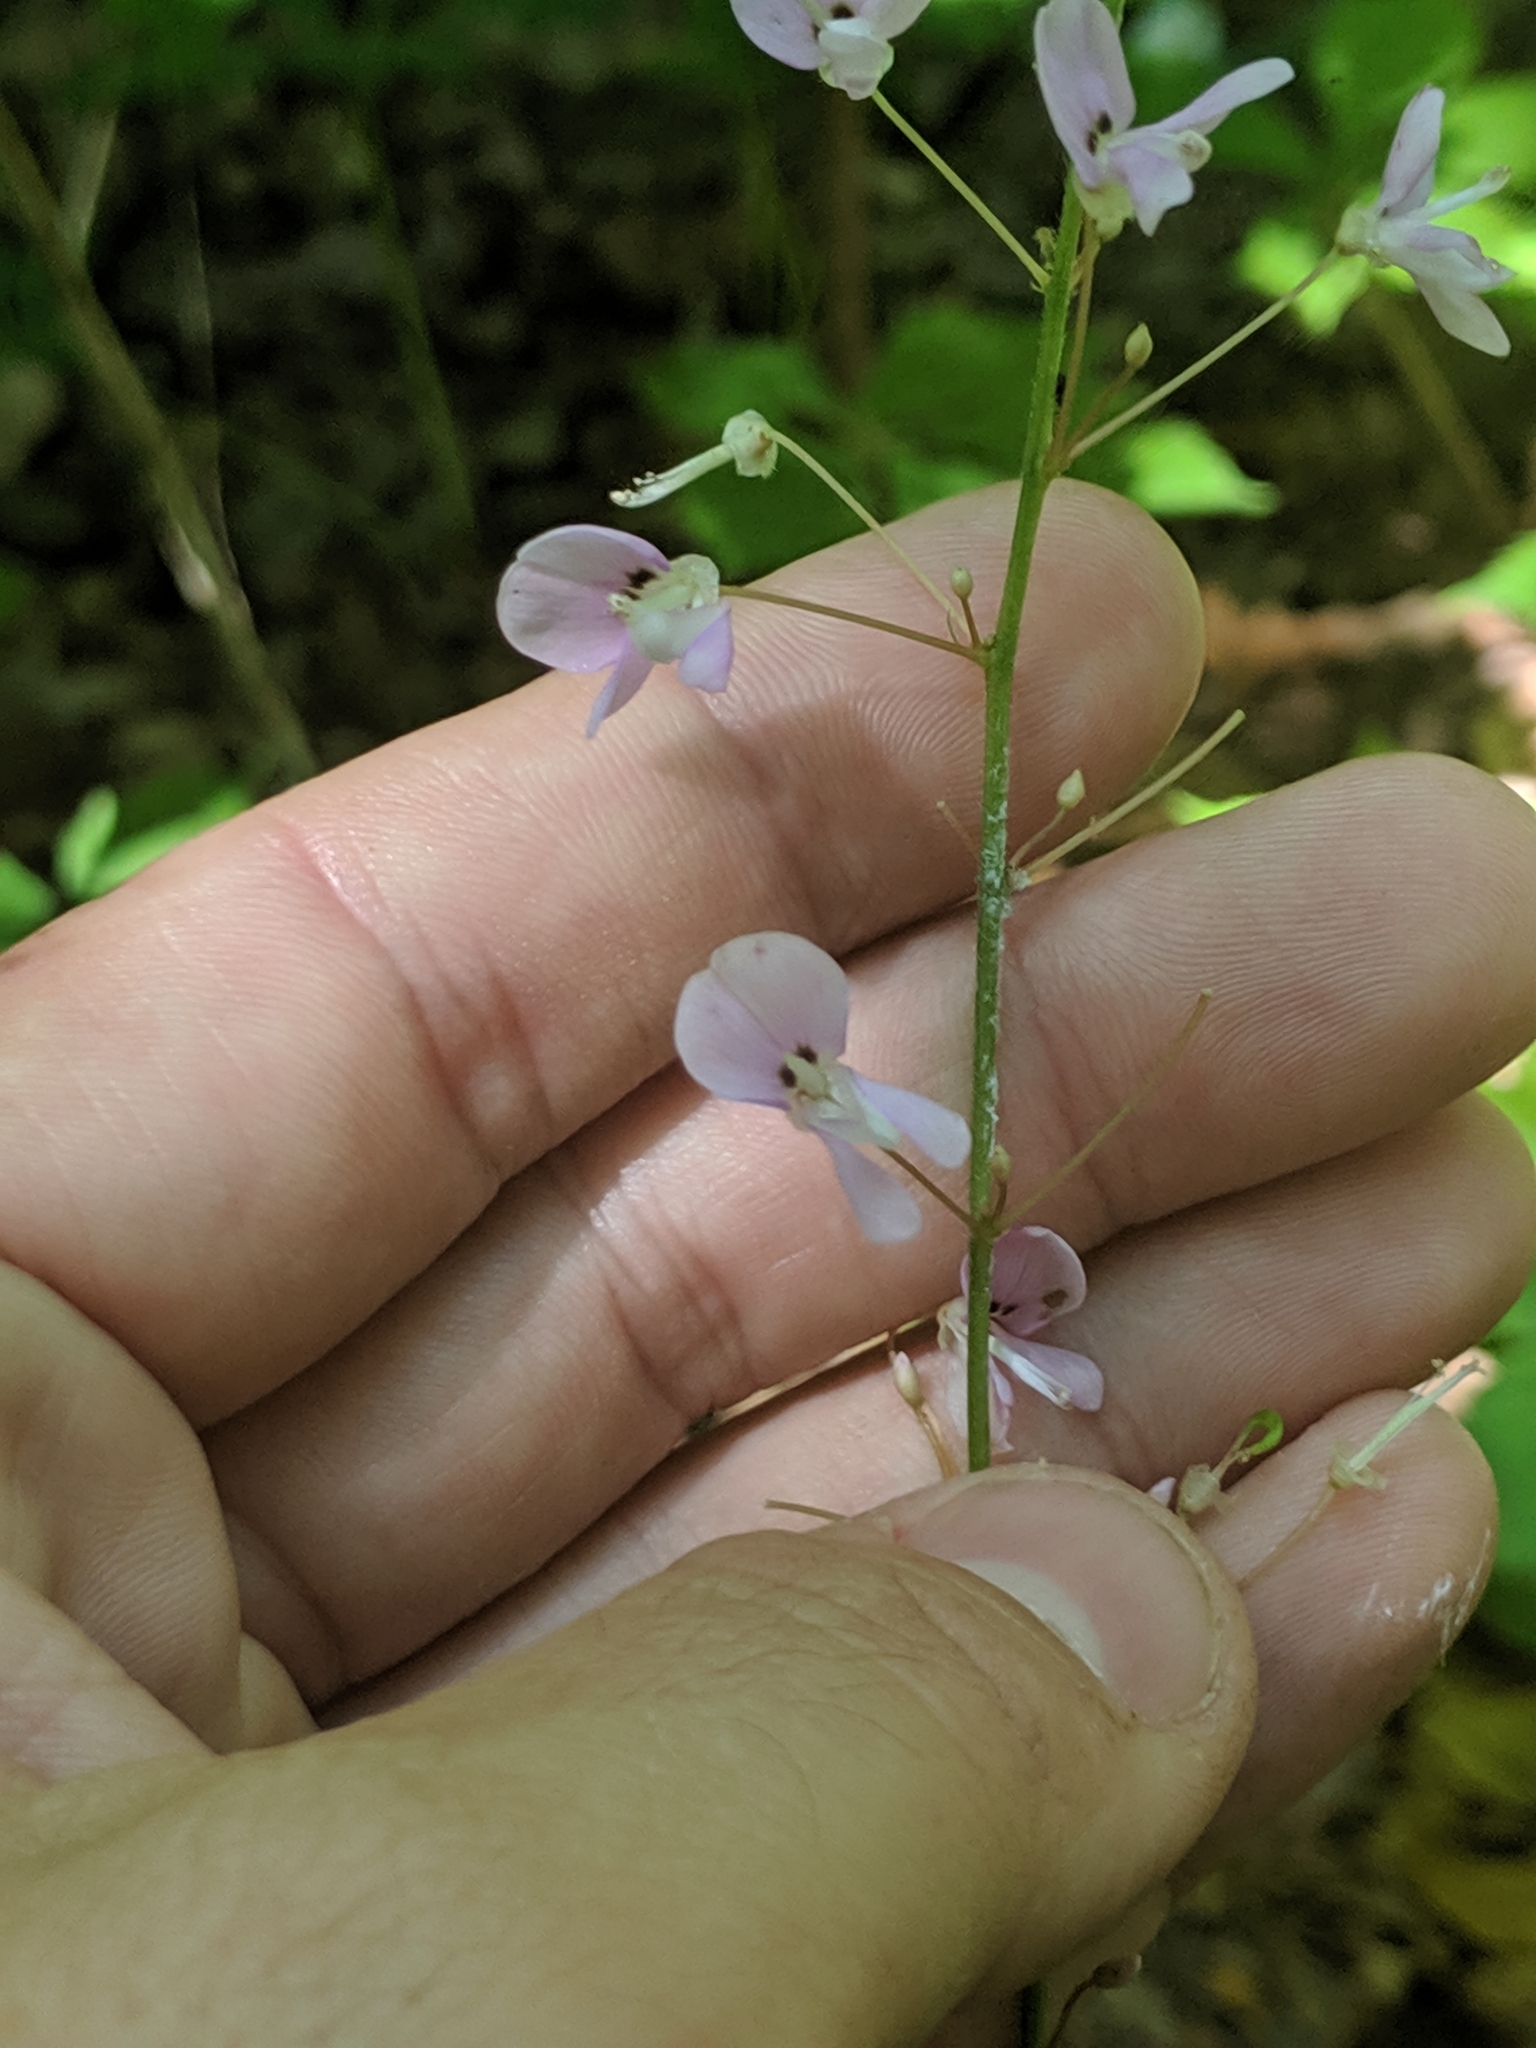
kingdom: Plantae
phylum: Tracheophyta
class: Magnoliopsida
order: Fabales
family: Fabaceae
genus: Hylodesmum
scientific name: Hylodesmum nudiflorum
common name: Bare-stemmed tick-trefoil
